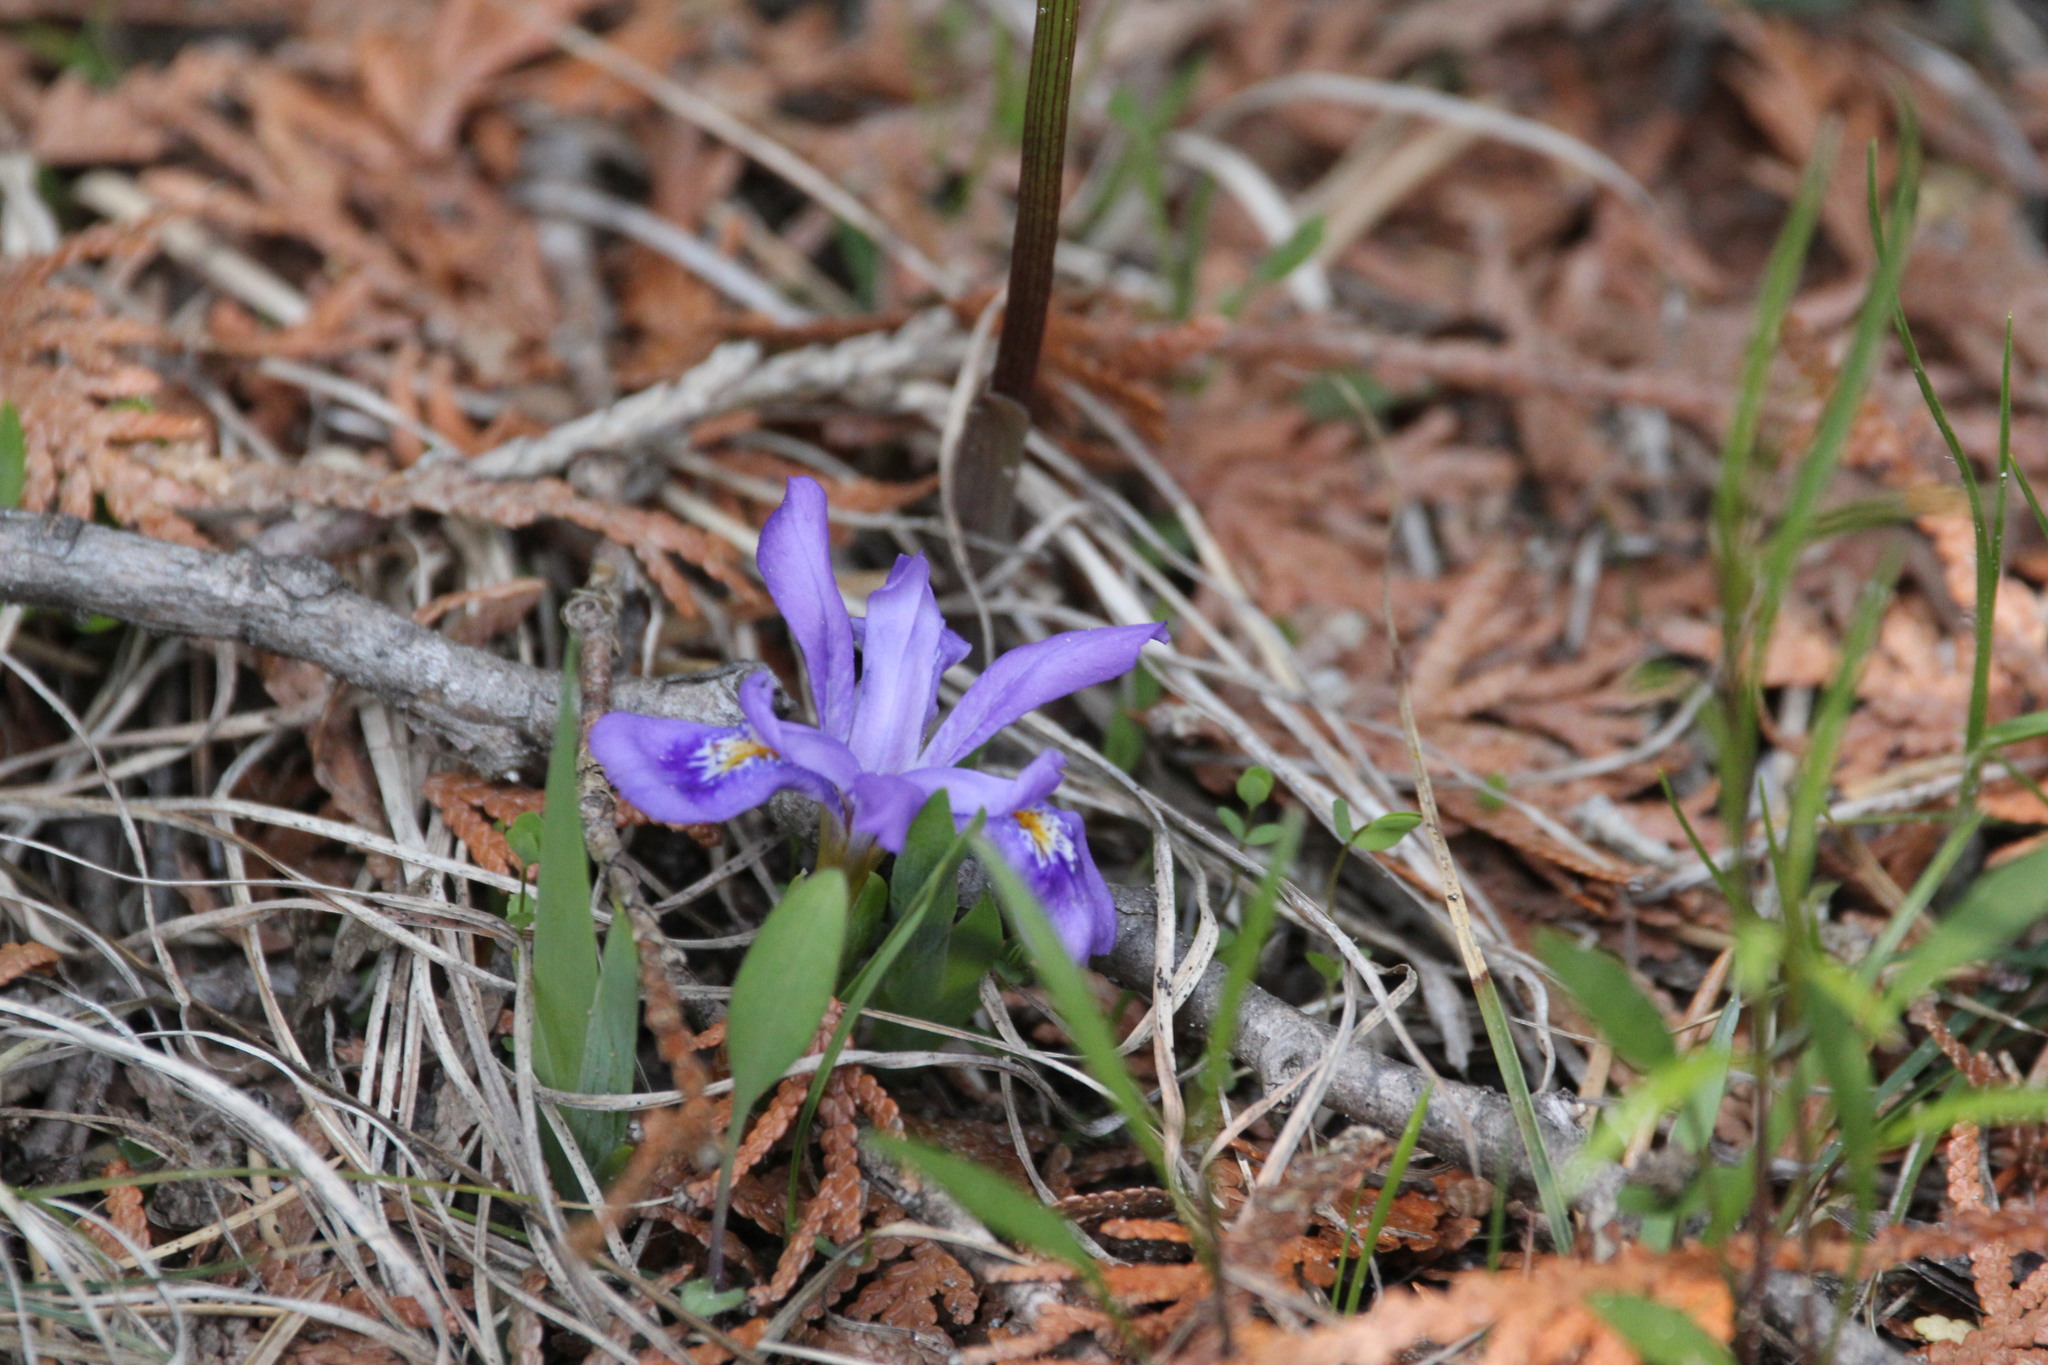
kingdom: Plantae
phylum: Tracheophyta
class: Liliopsida
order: Asparagales
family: Iridaceae
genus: Iris
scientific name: Iris lacustris
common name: Dwarf lake iris
